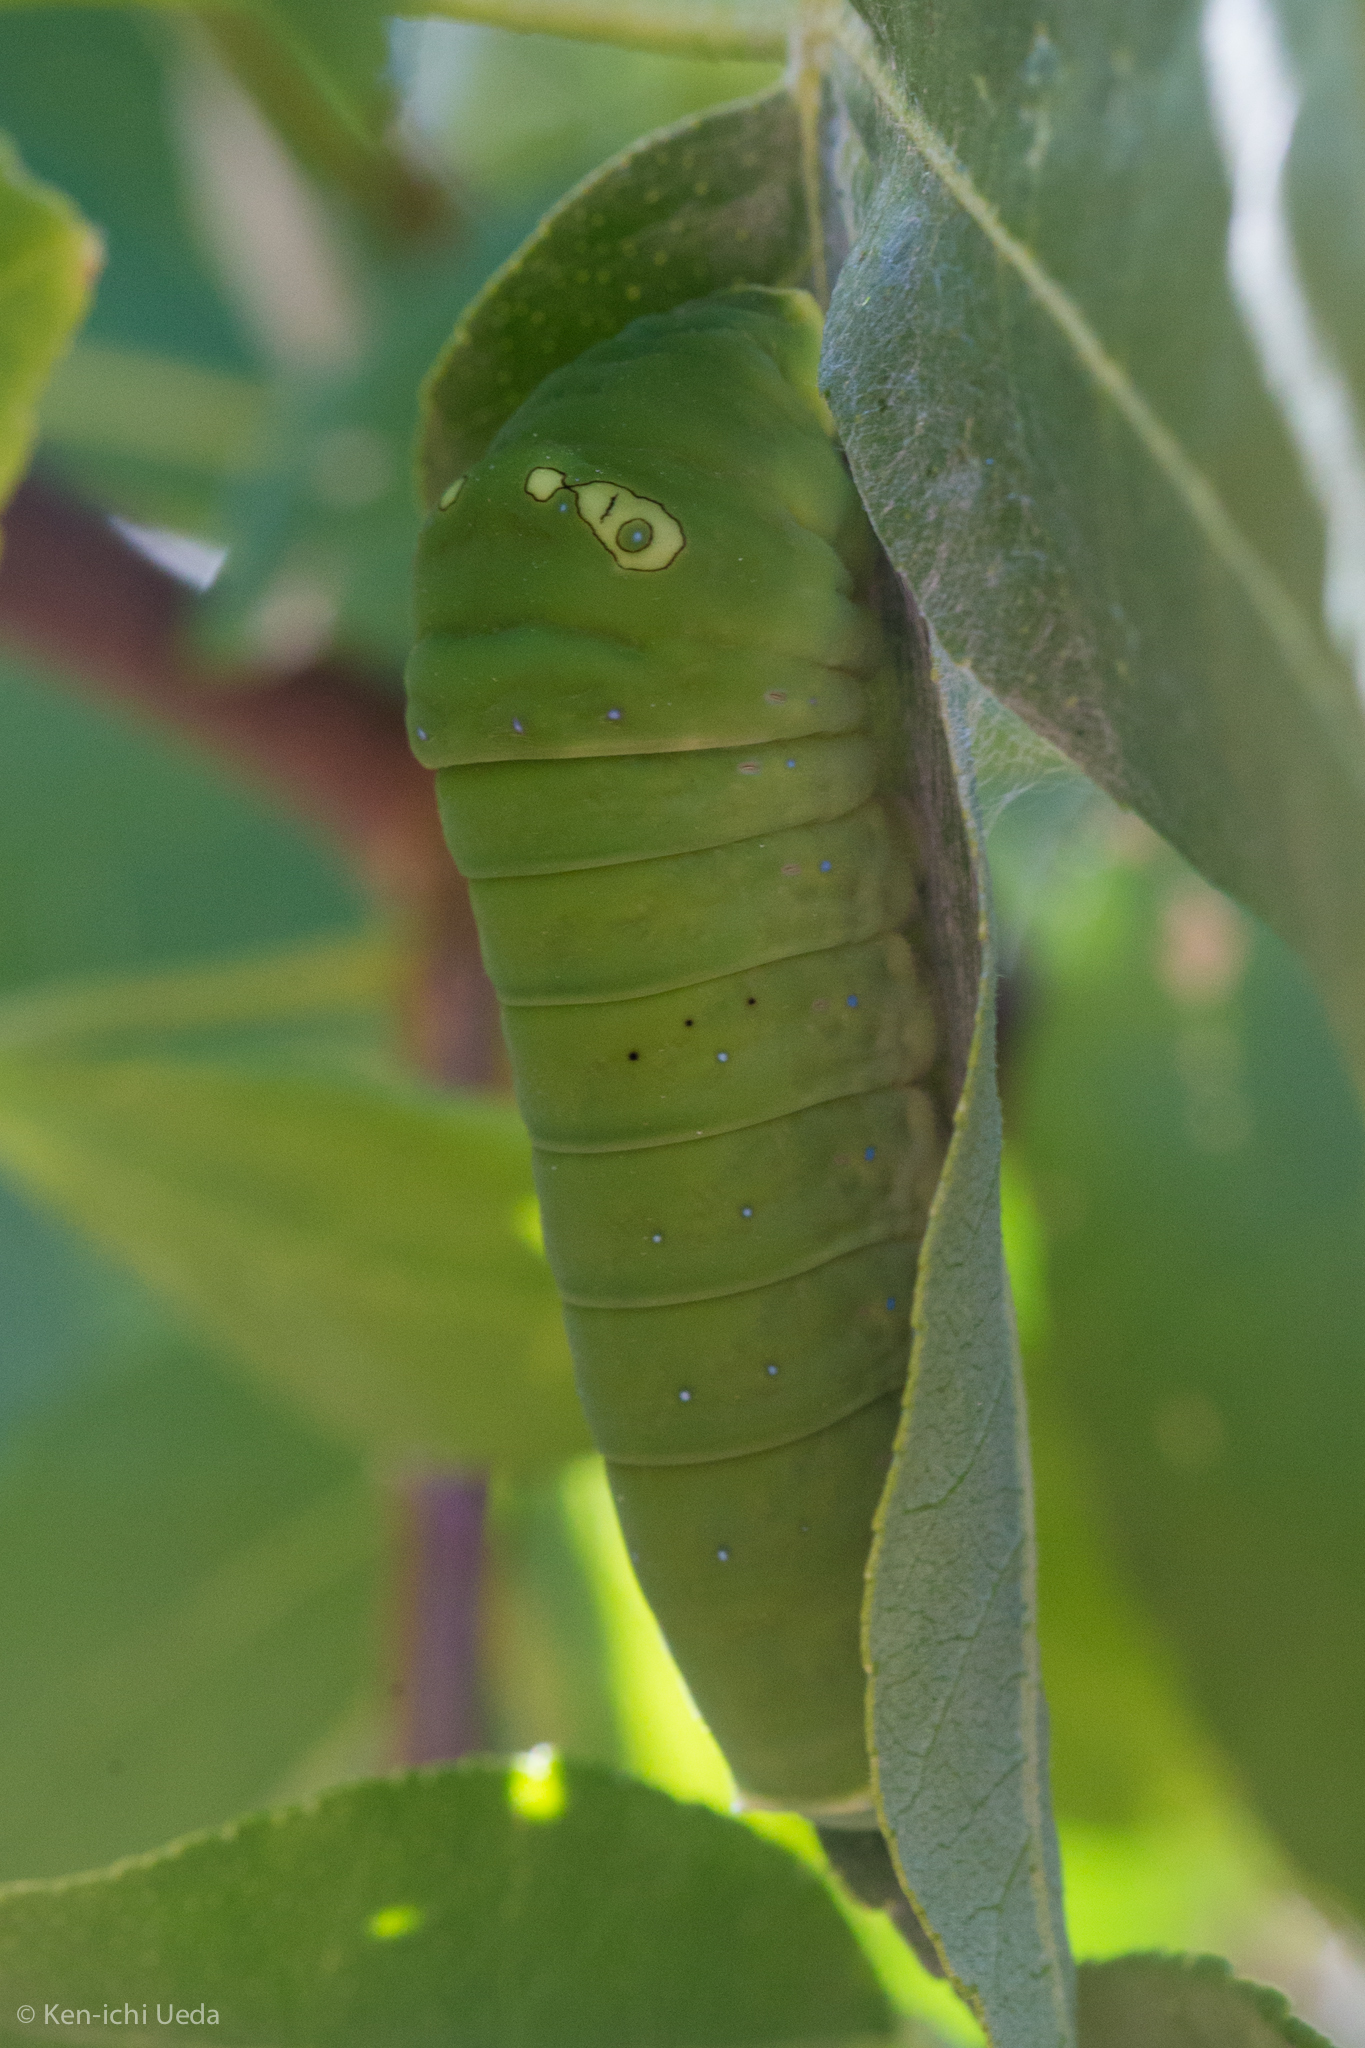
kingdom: Animalia
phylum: Arthropoda
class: Insecta
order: Lepidoptera
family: Papilionidae
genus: Papilio
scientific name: Papilio multicaudata
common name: Two-tailed tiger swallowtail
